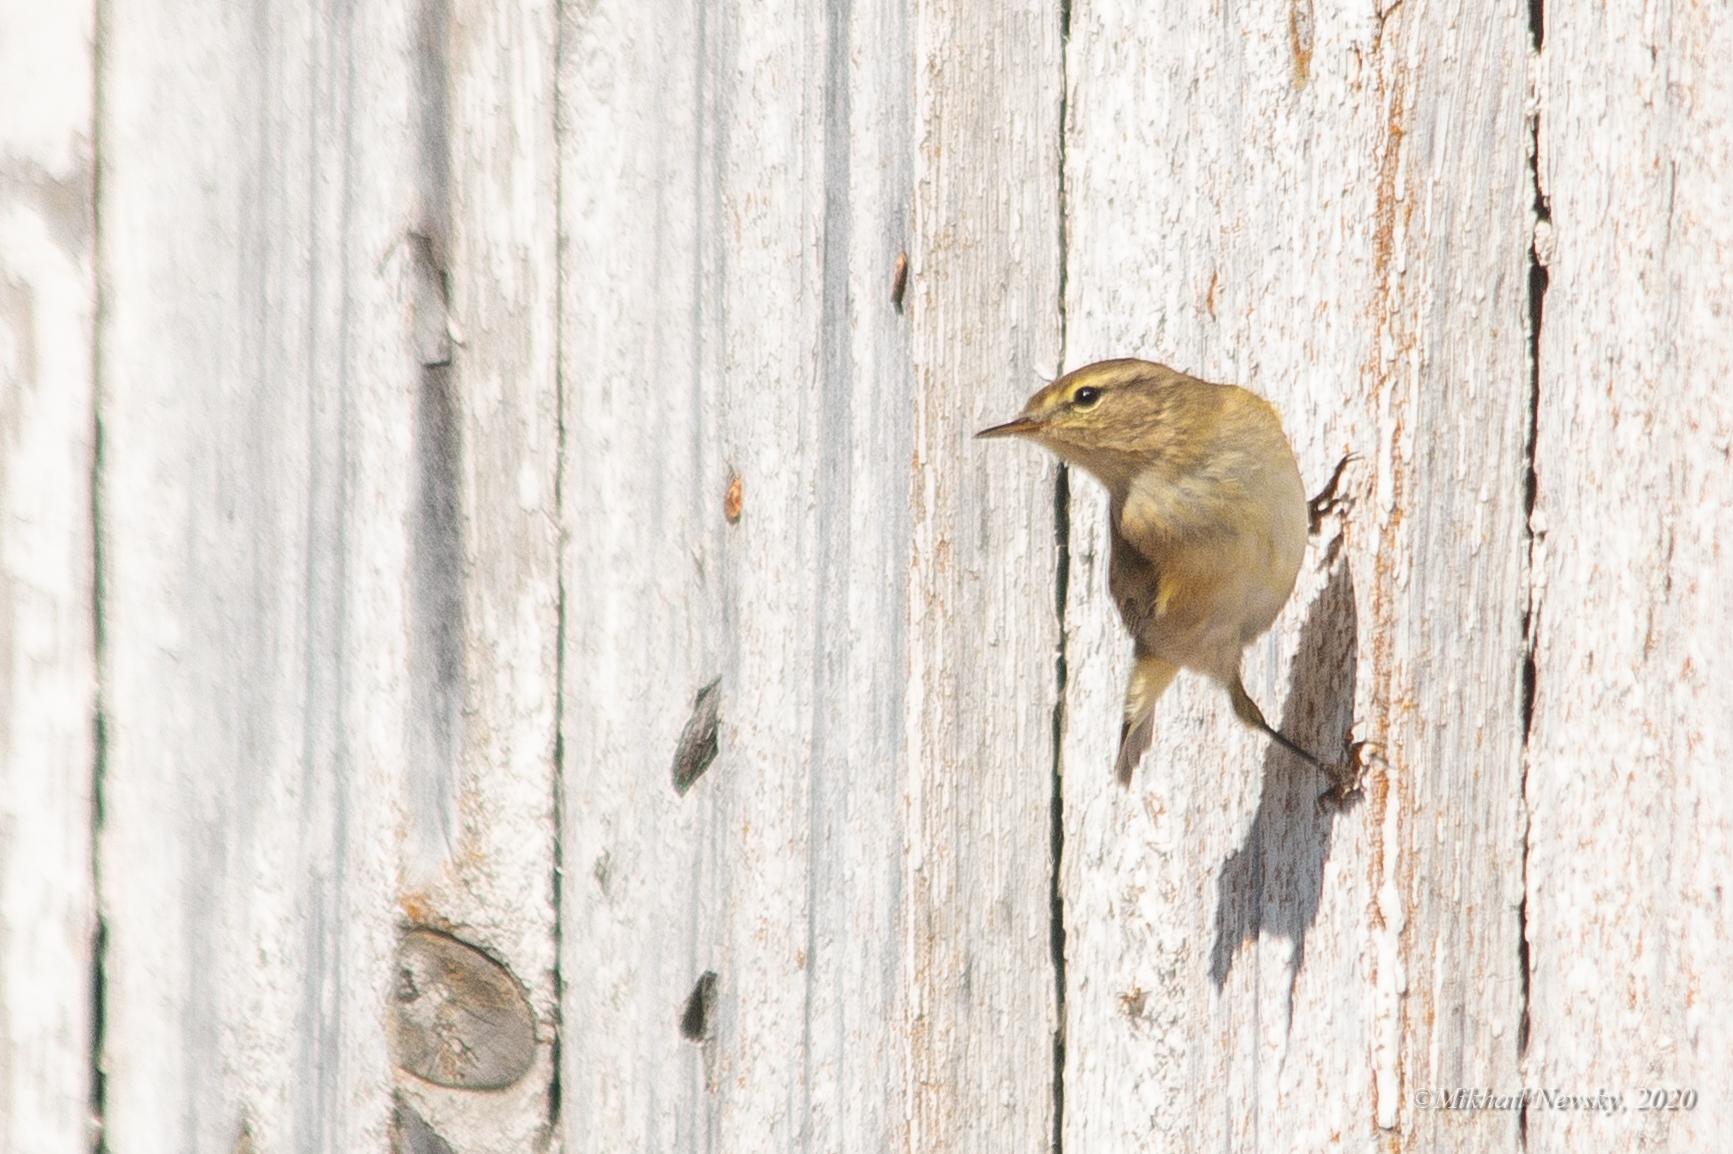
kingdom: Animalia
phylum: Chordata
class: Aves
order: Passeriformes
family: Phylloscopidae
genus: Phylloscopus
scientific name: Phylloscopus collybita
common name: Common chiffchaff
